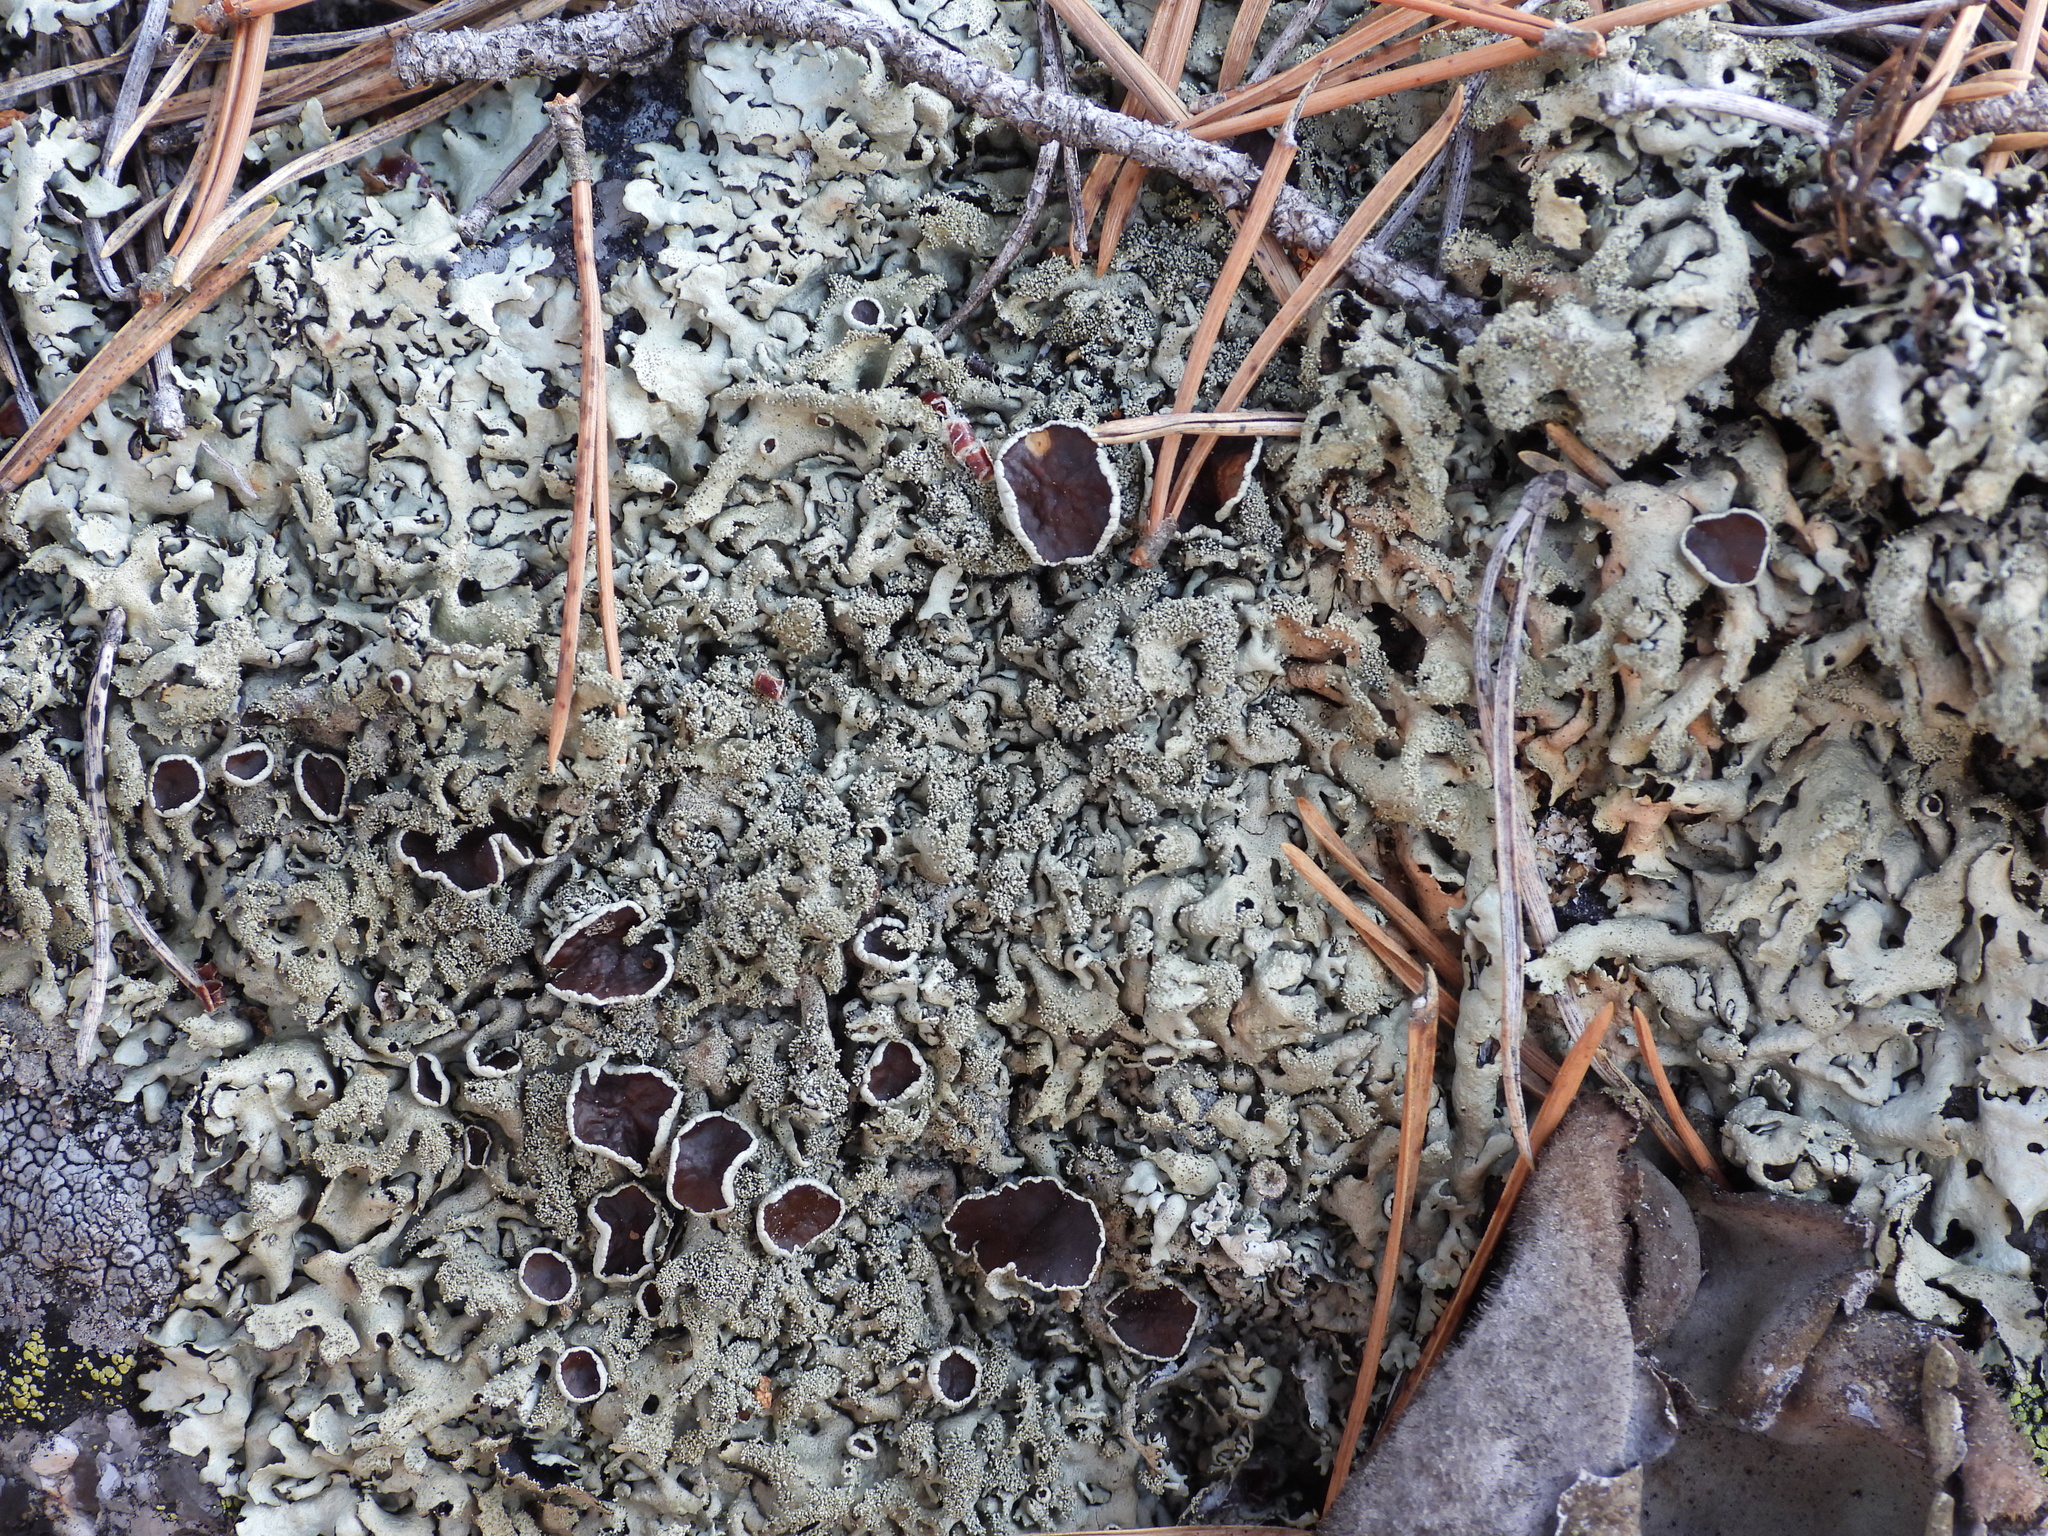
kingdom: Fungi
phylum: Ascomycota
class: Lecanoromycetes
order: Lecanorales
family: Parmeliaceae
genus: Xanthoparmelia
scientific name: Xanthoparmelia conspersa
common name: Peppered rock shield
